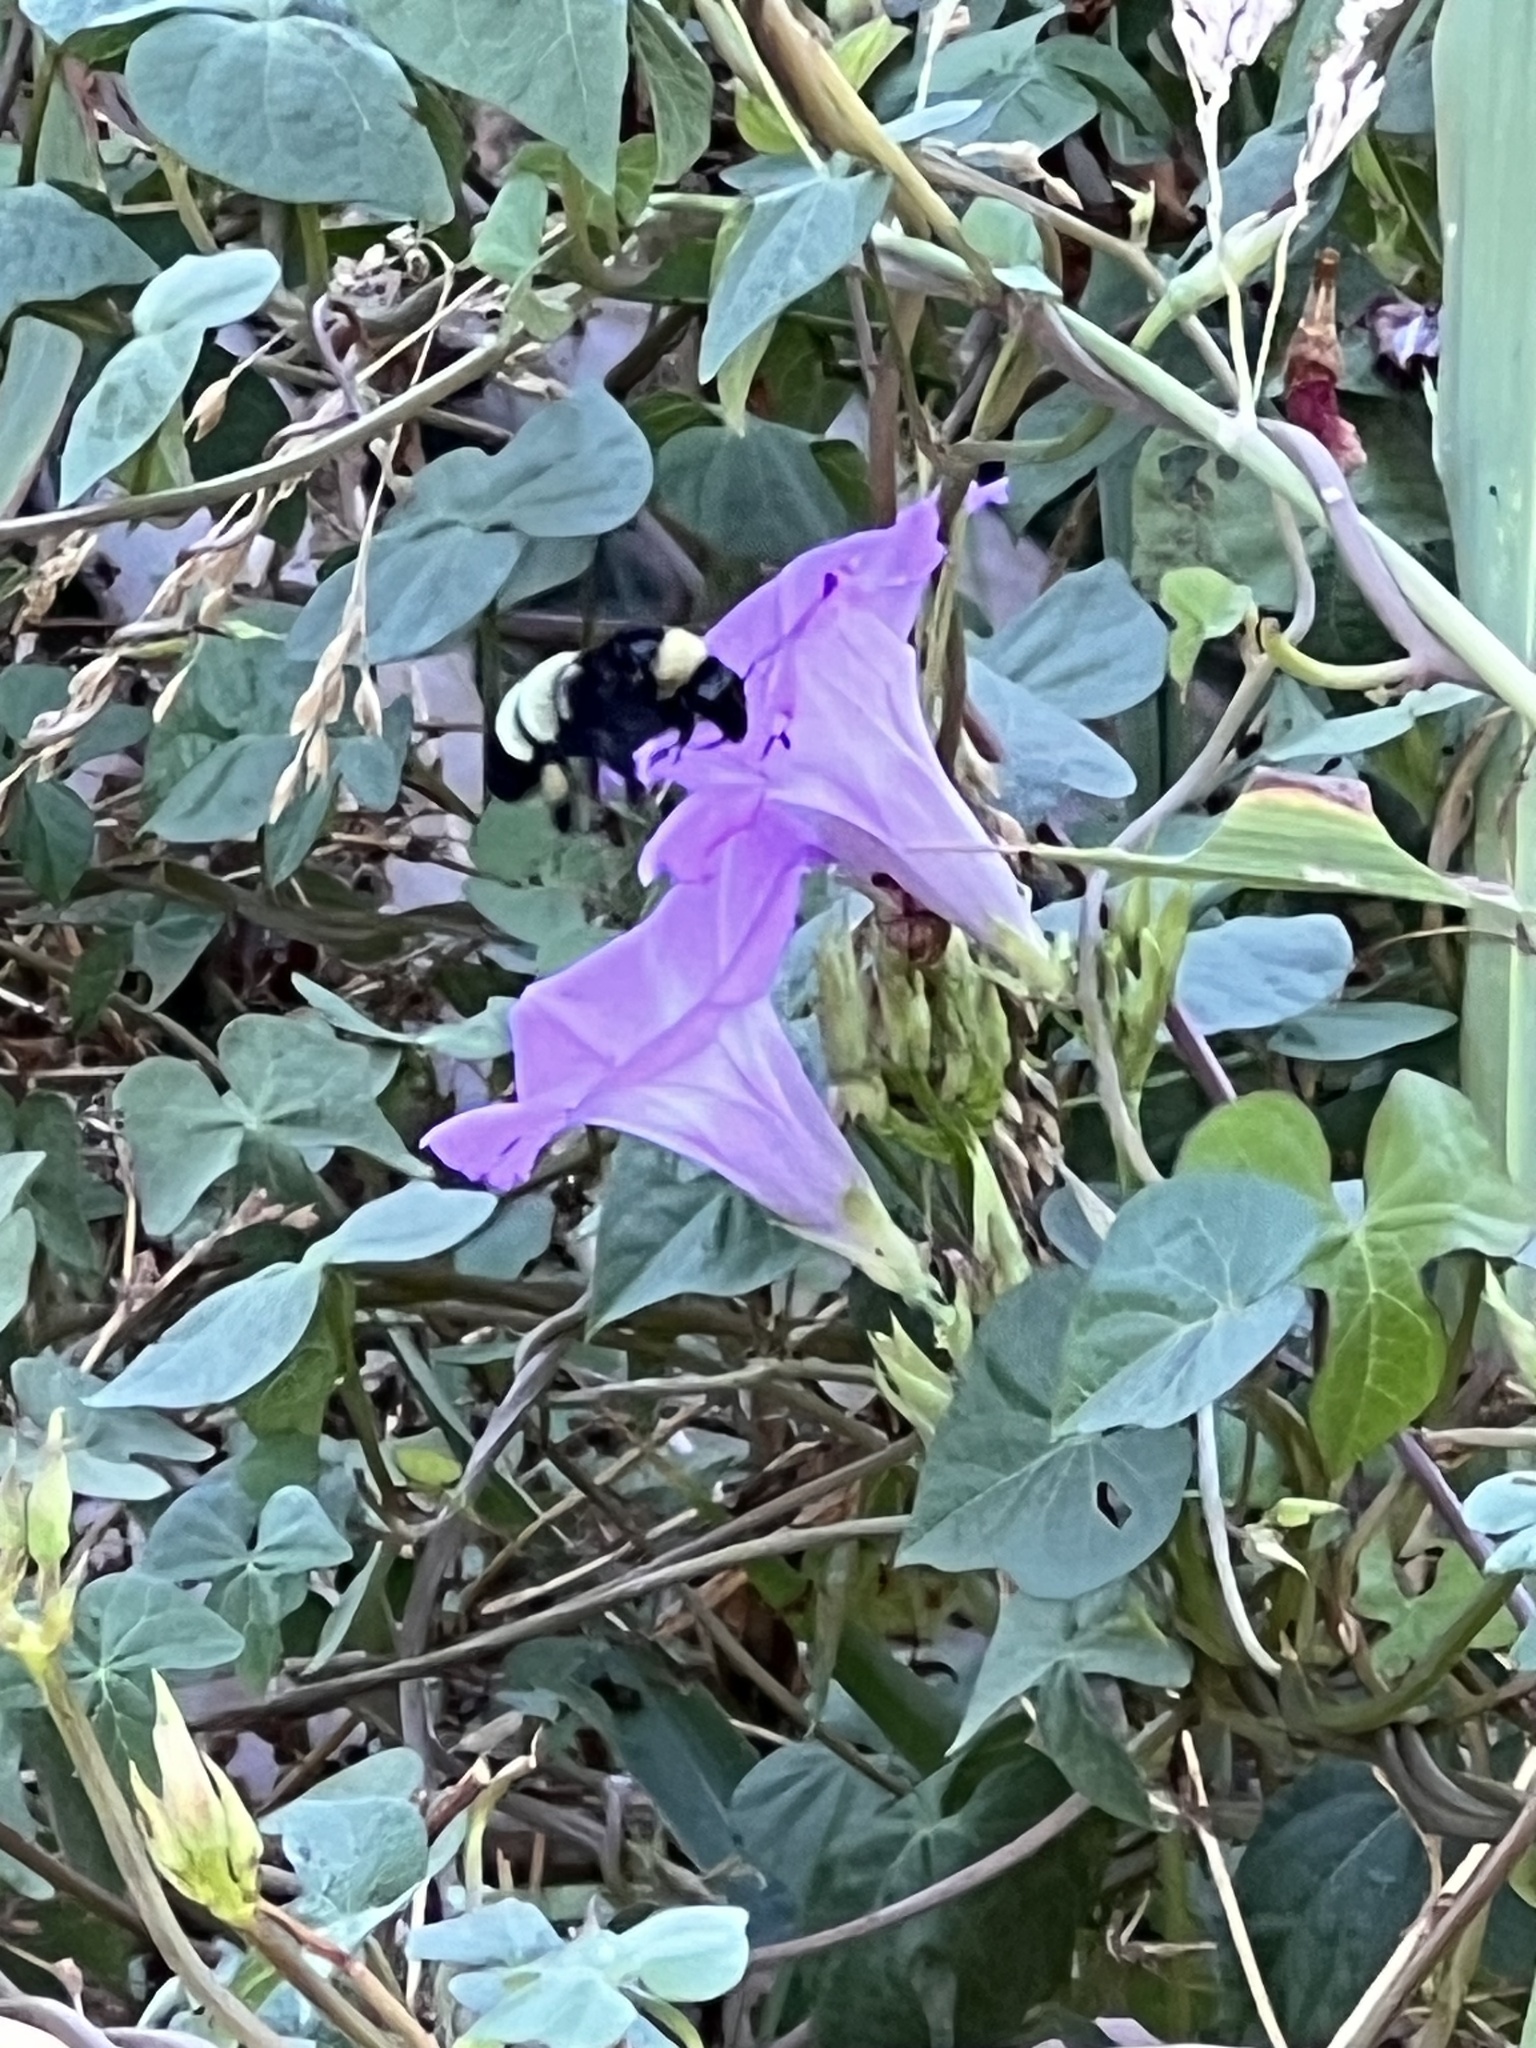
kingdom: Animalia
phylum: Arthropoda
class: Insecta
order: Hymenoptera
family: Apidae
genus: Bombus
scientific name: Bombus pensylvanicus
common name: Bumble bee
